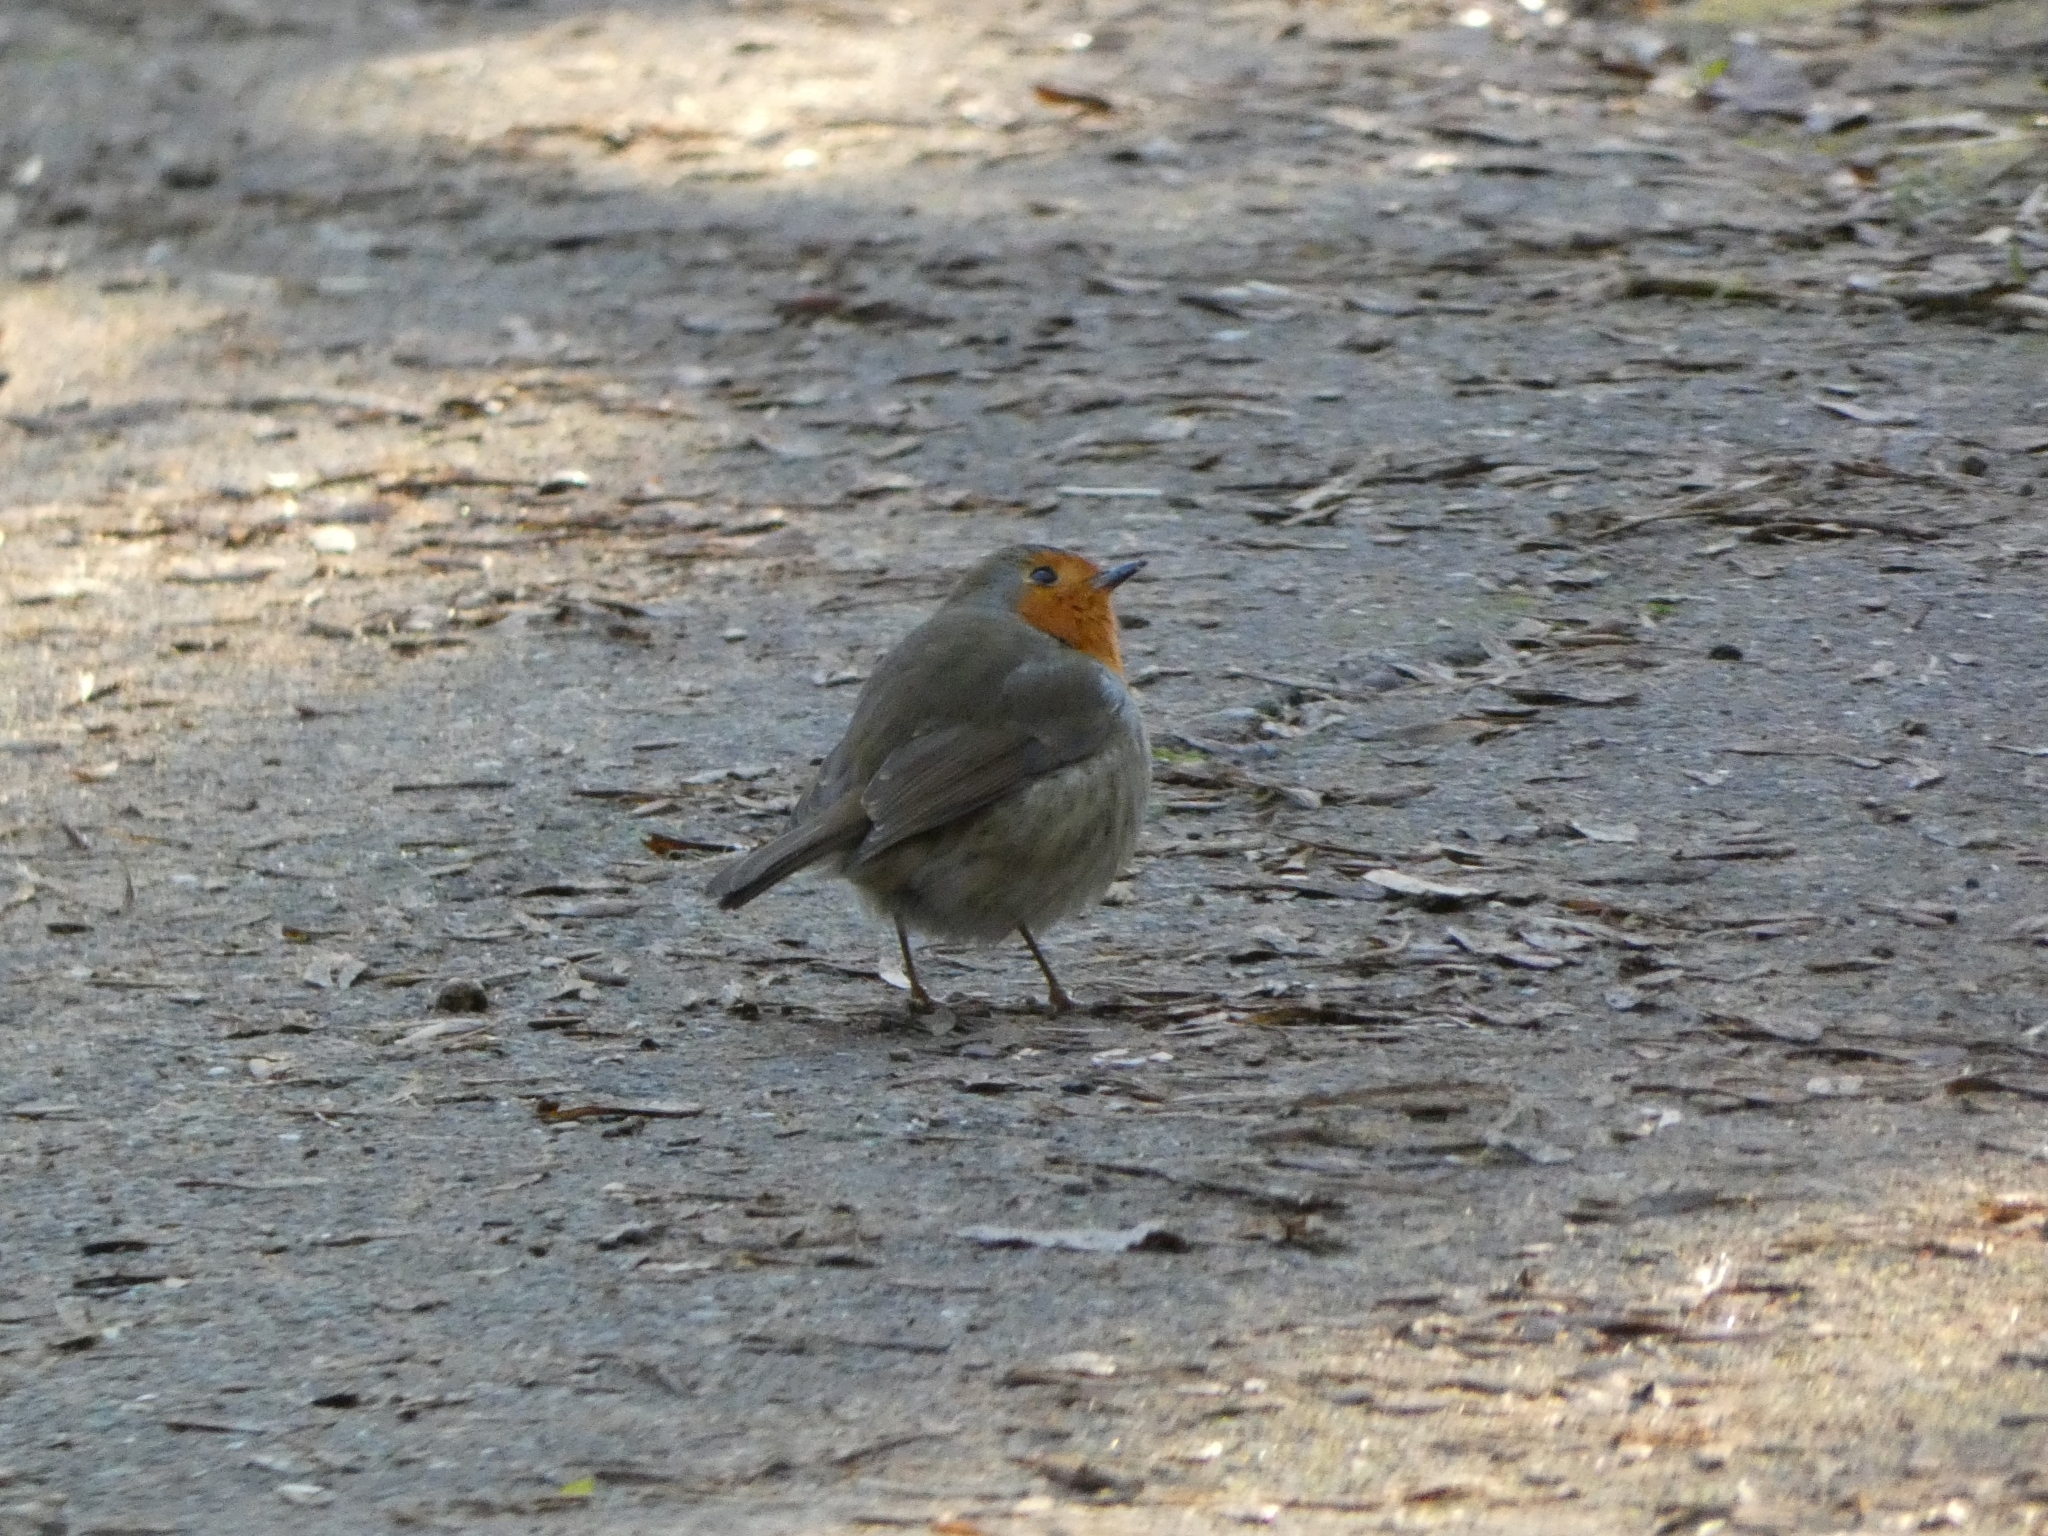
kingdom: Animalia
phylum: Chordata
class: Aves
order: Passeriformes
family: Muscicapidae
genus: Erithacus
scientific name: Erithacus rubecula
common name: European robin
